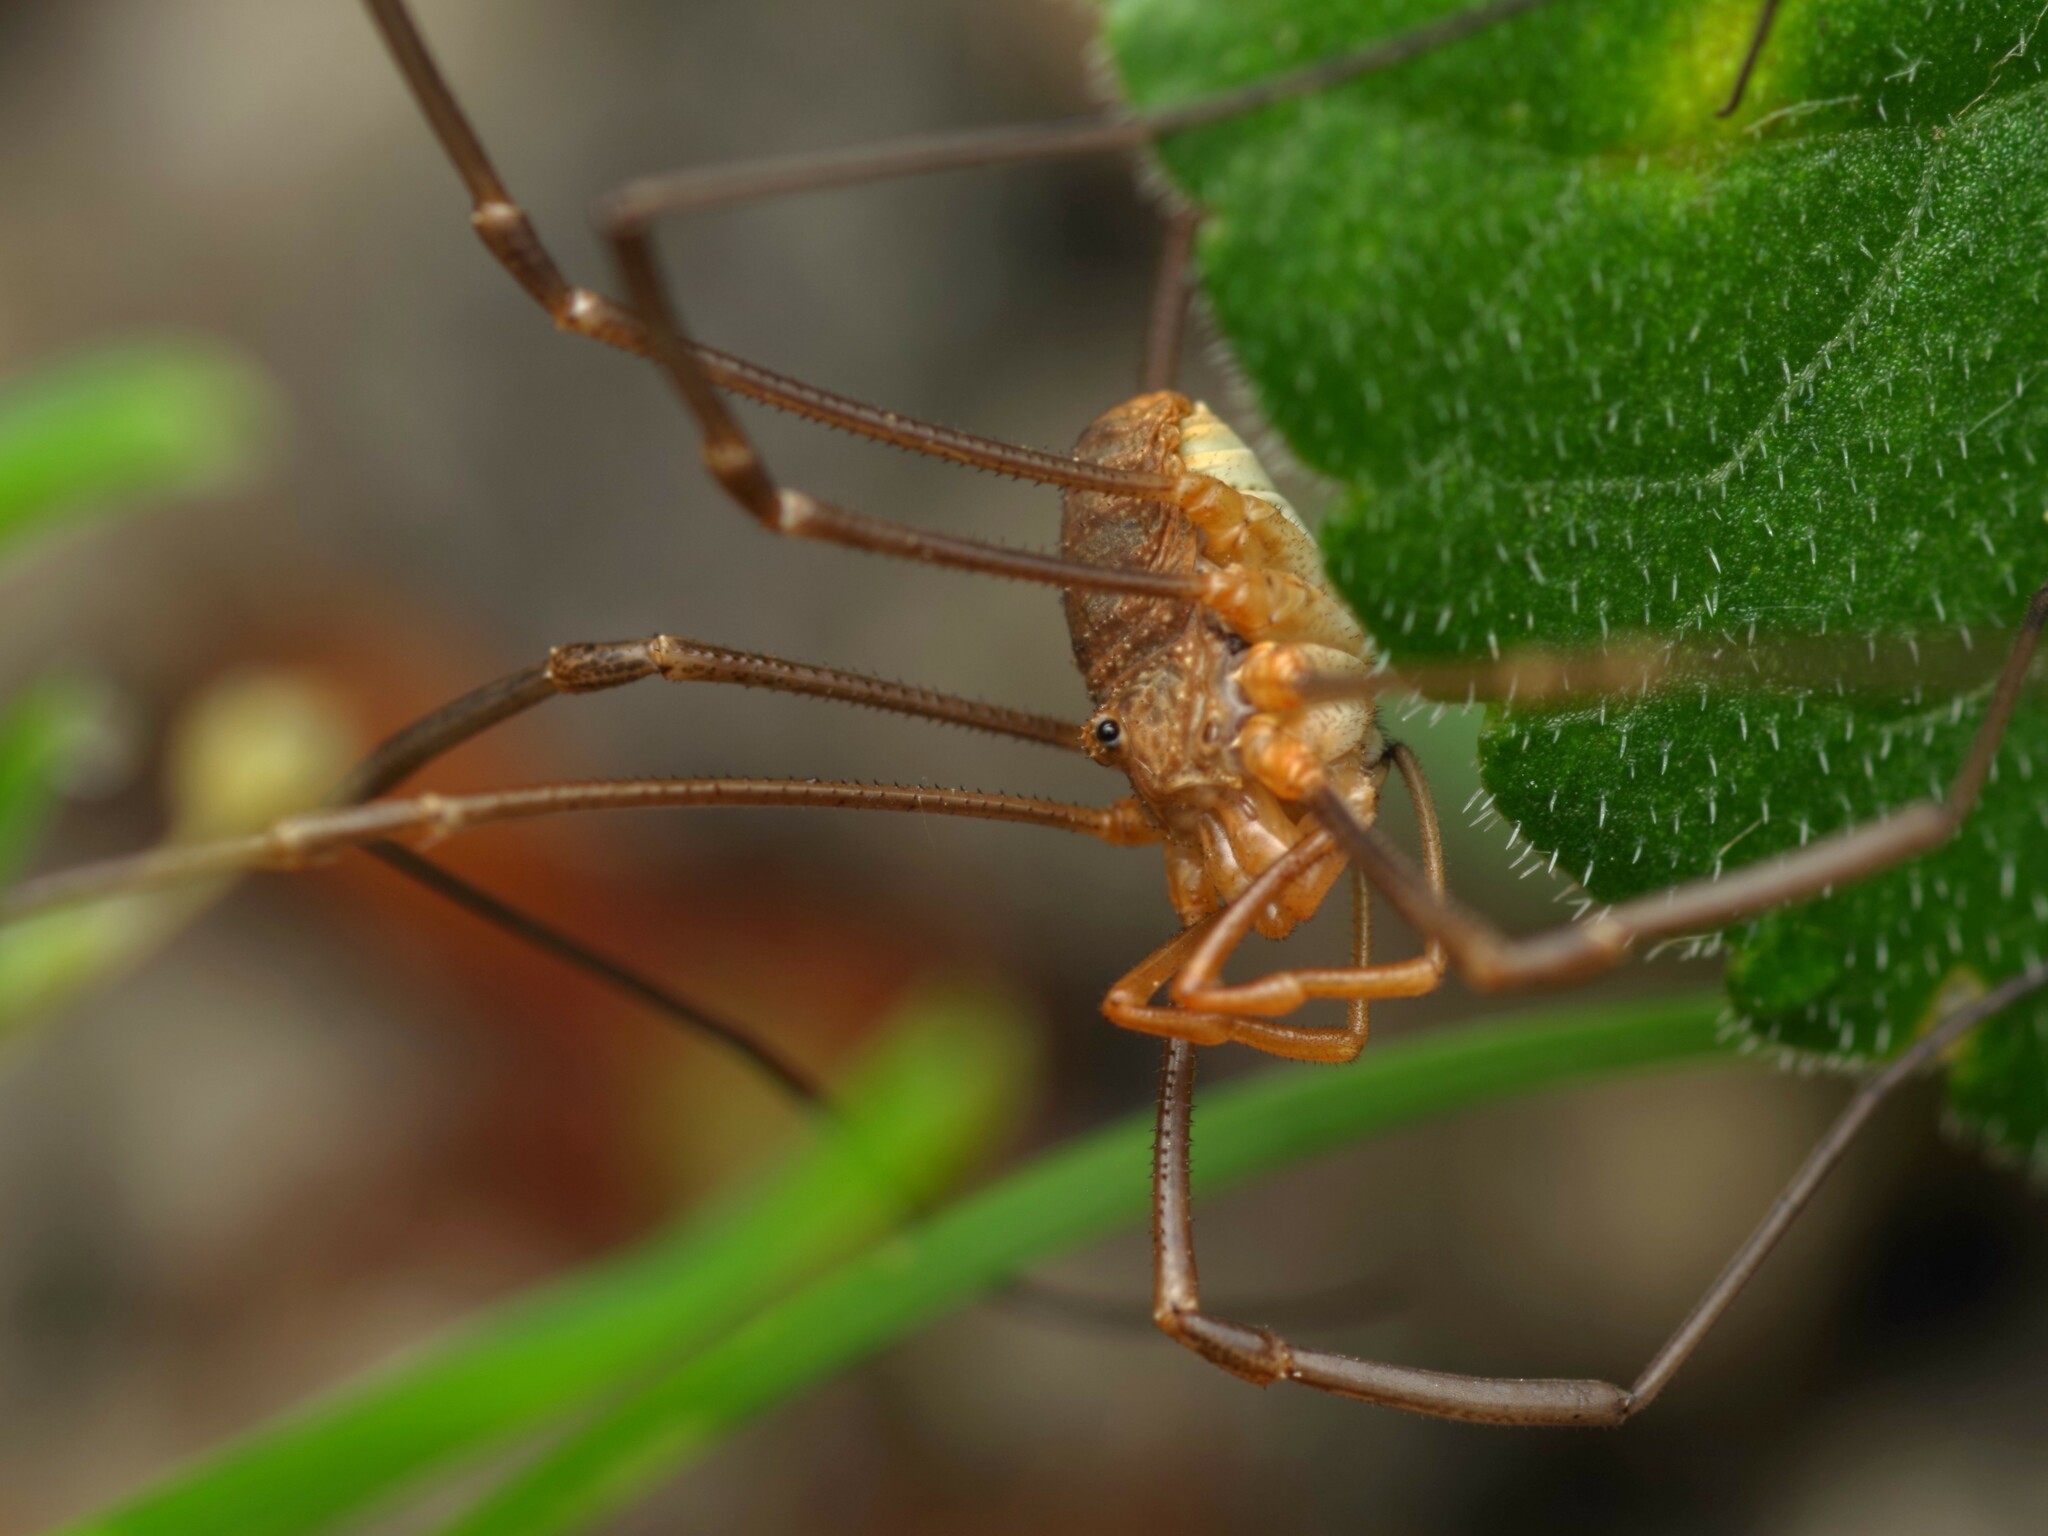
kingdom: Animalia
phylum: Arthropoda
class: Arachnida
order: Opiliones
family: Phalangiidae
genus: Phalangium
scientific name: Phalangium opilio
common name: Daddy longleg
